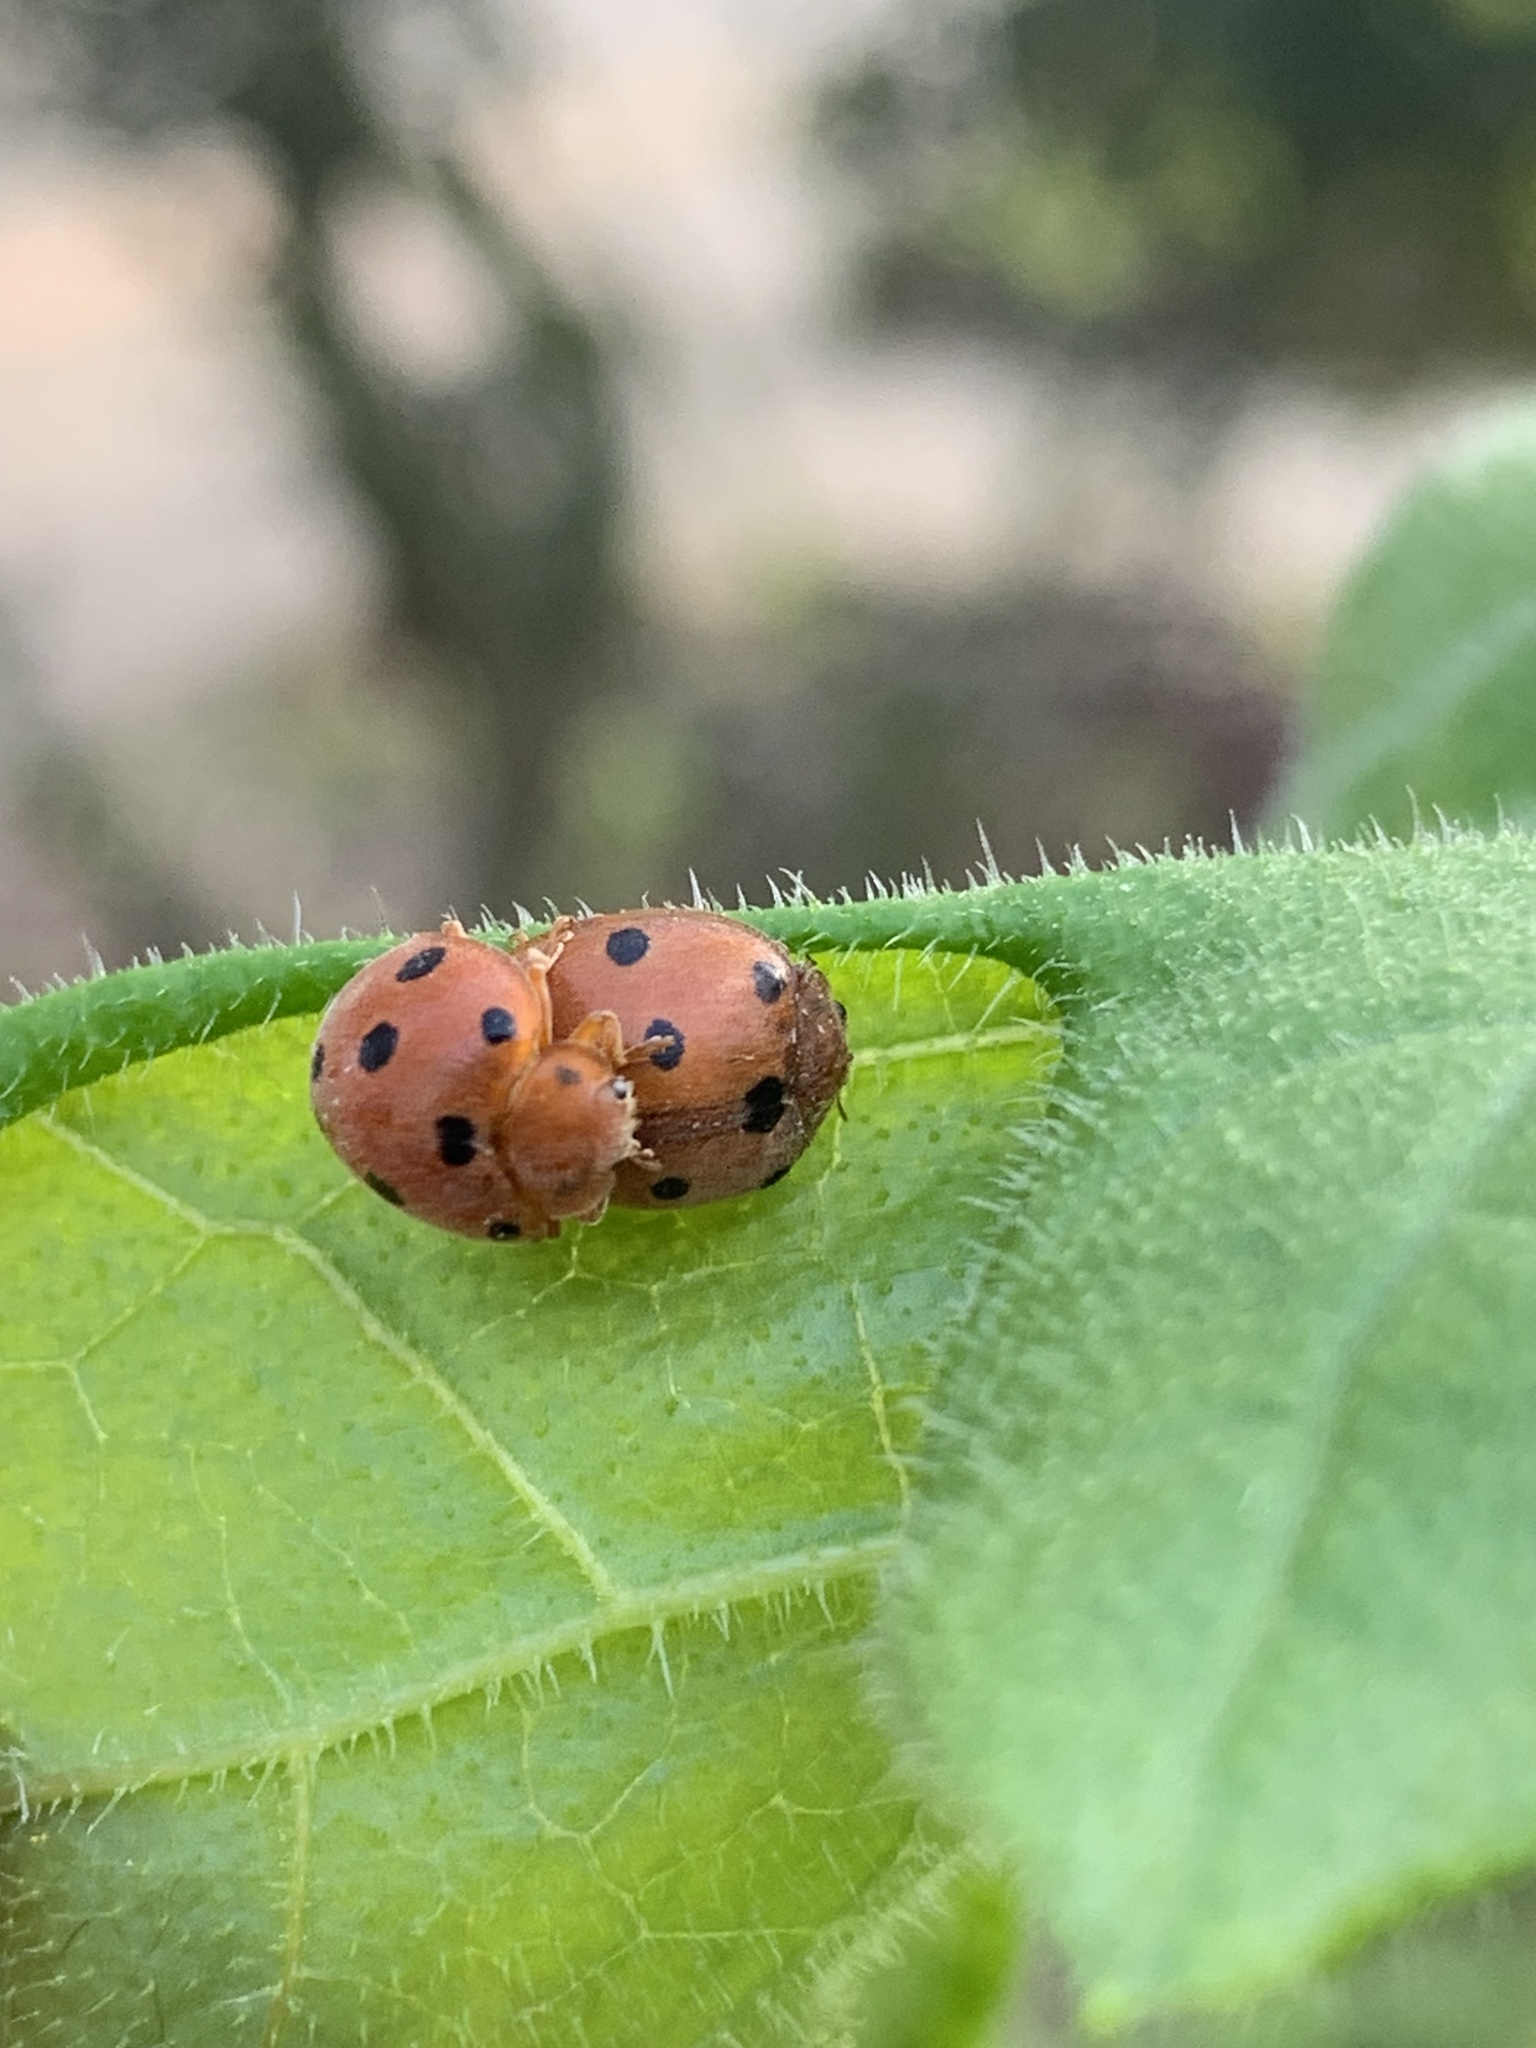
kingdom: Animalia
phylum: Arthropoda
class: Insecta
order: Coleoptera
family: Coccinellidae
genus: Henosepilachna
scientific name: Henosepilachna argus
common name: Bryony ladybird
